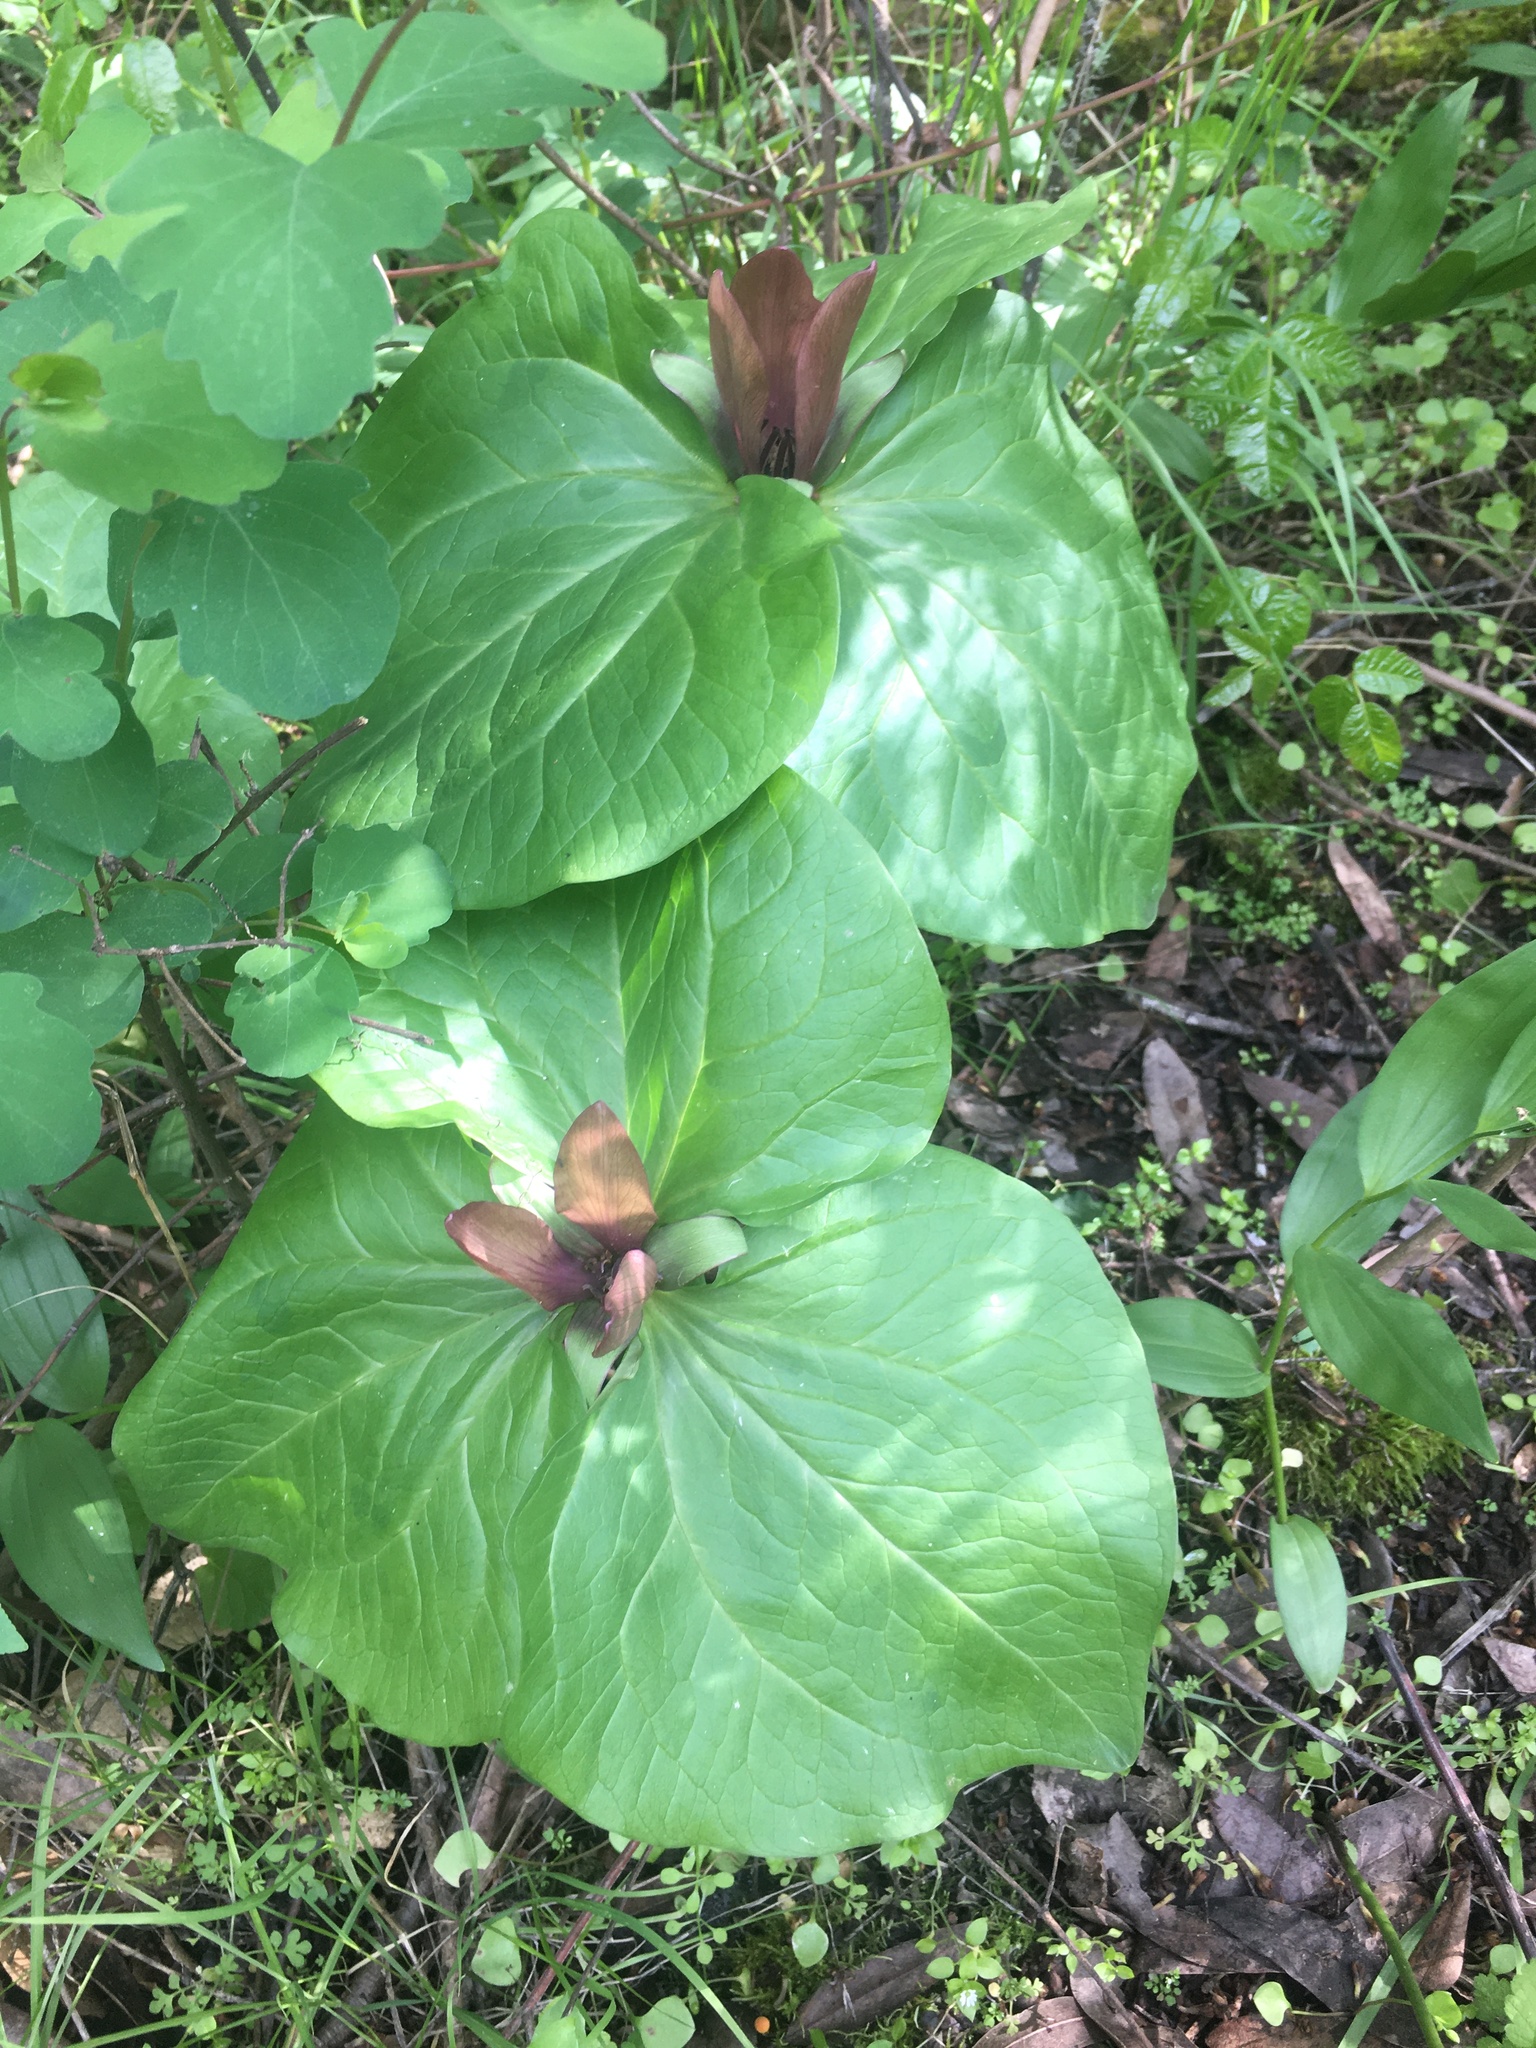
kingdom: Plantae
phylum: Tracheophyta
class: Liliopsida
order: Liliales
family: Melanthiaceae
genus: Trillium
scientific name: Trillium chloropetalum
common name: Giant trillium
